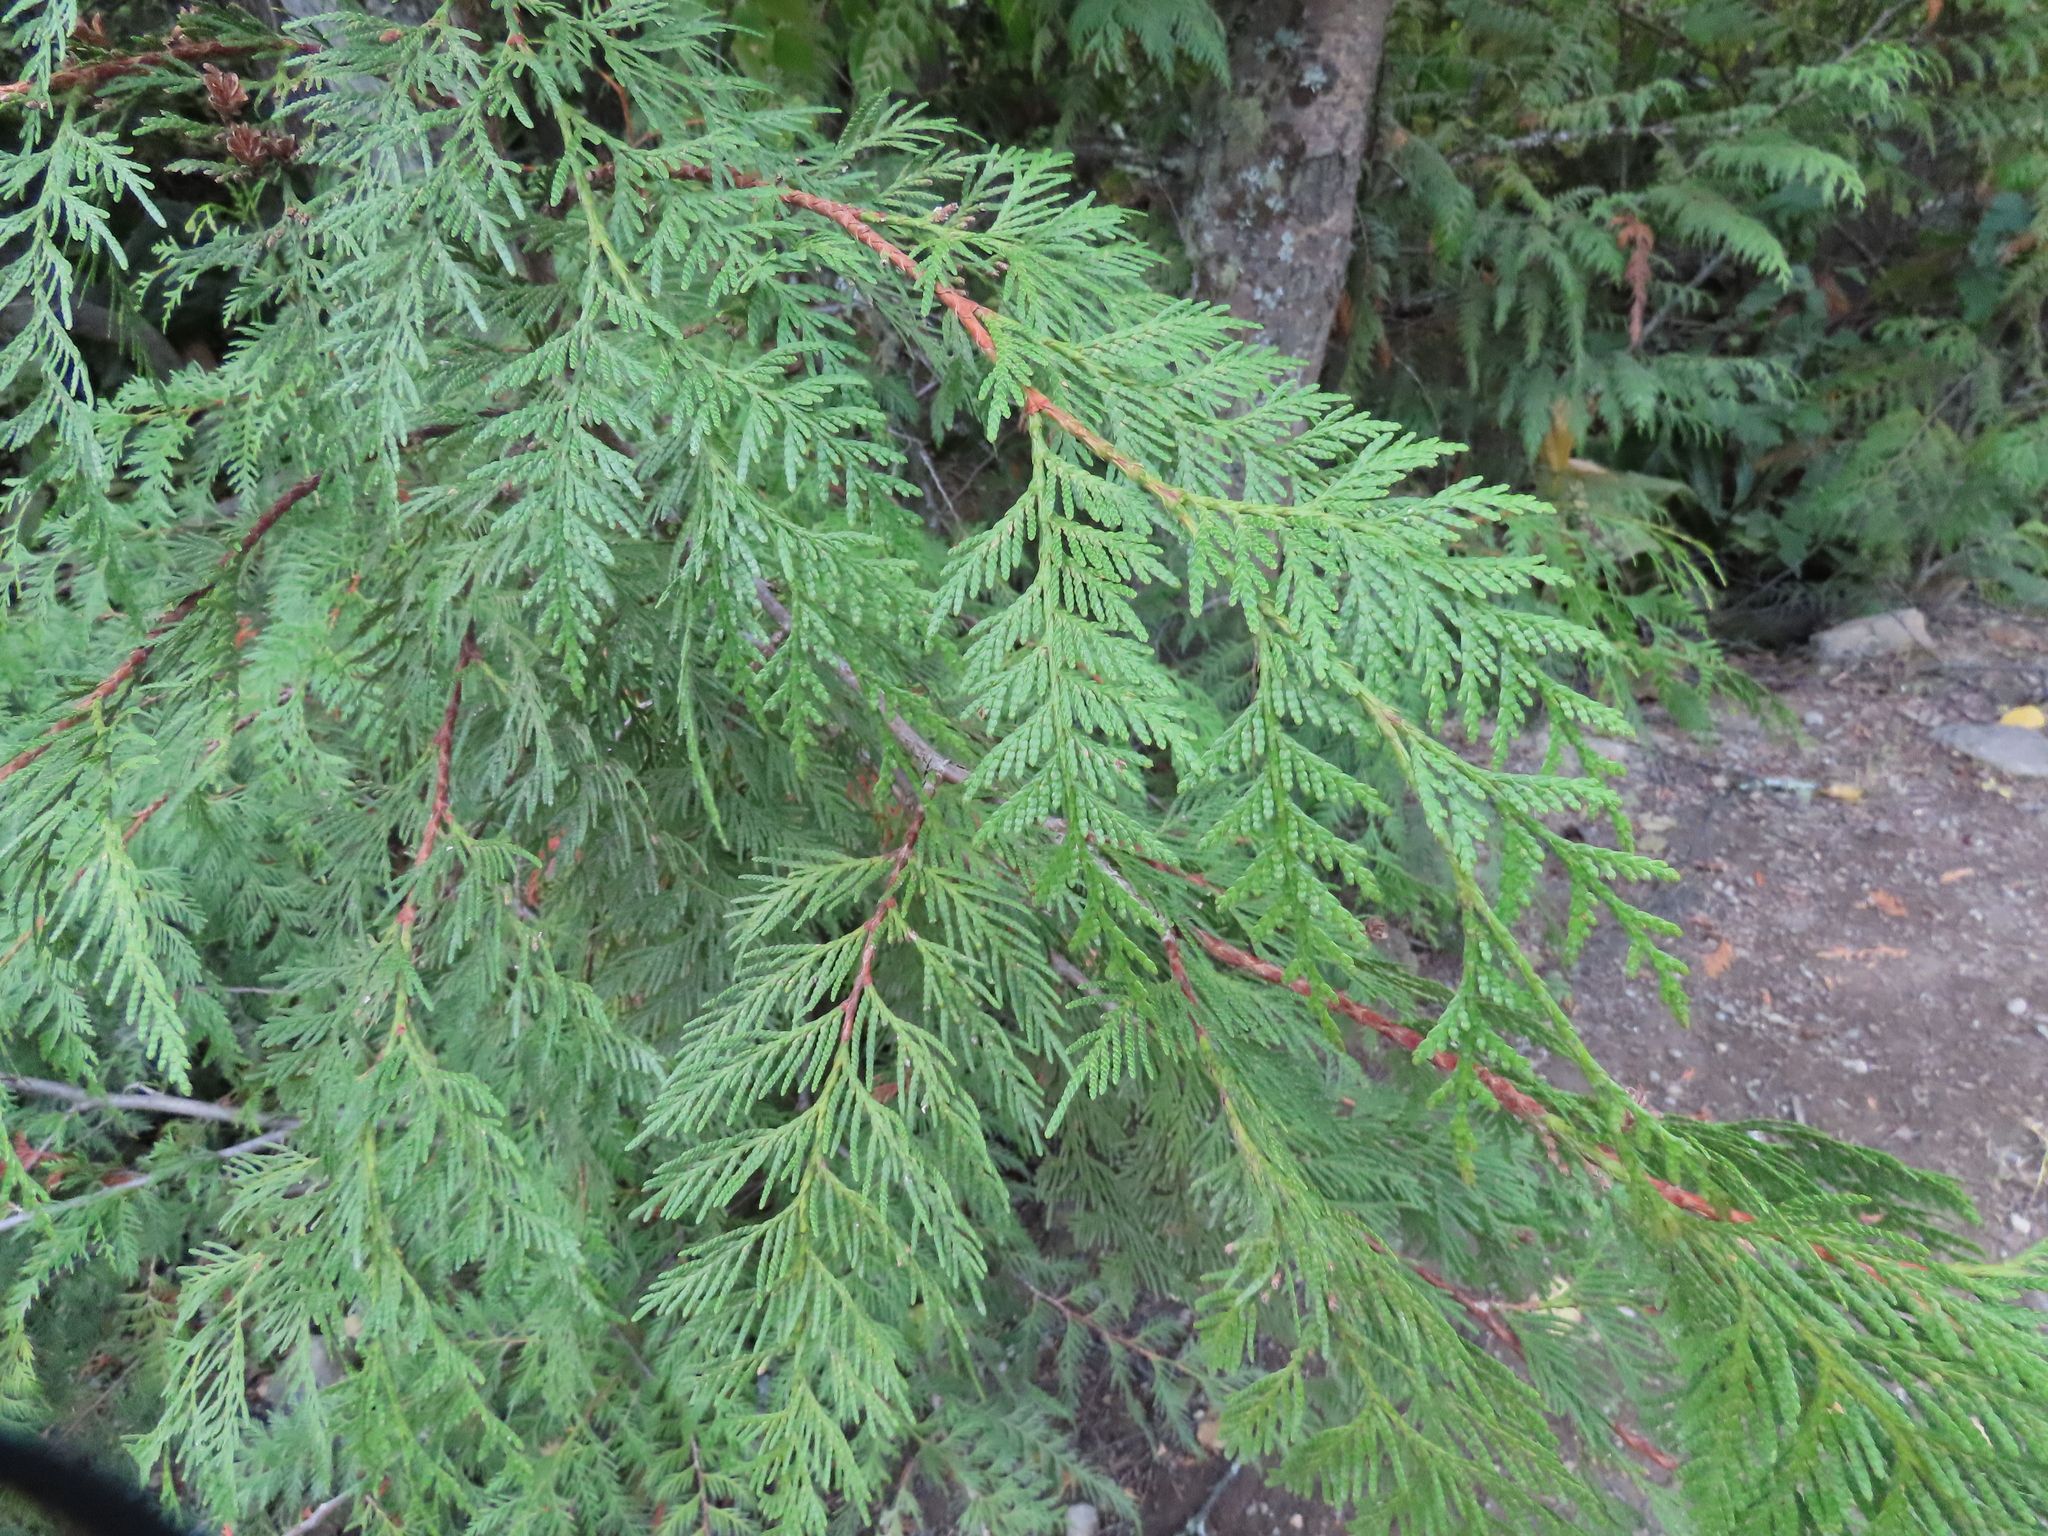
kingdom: Plantae
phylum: Tracheophyta
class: Pinopsida
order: Pinales
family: Cupressaceae
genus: Thuja
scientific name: Thuja plicata
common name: Western red-cedar
